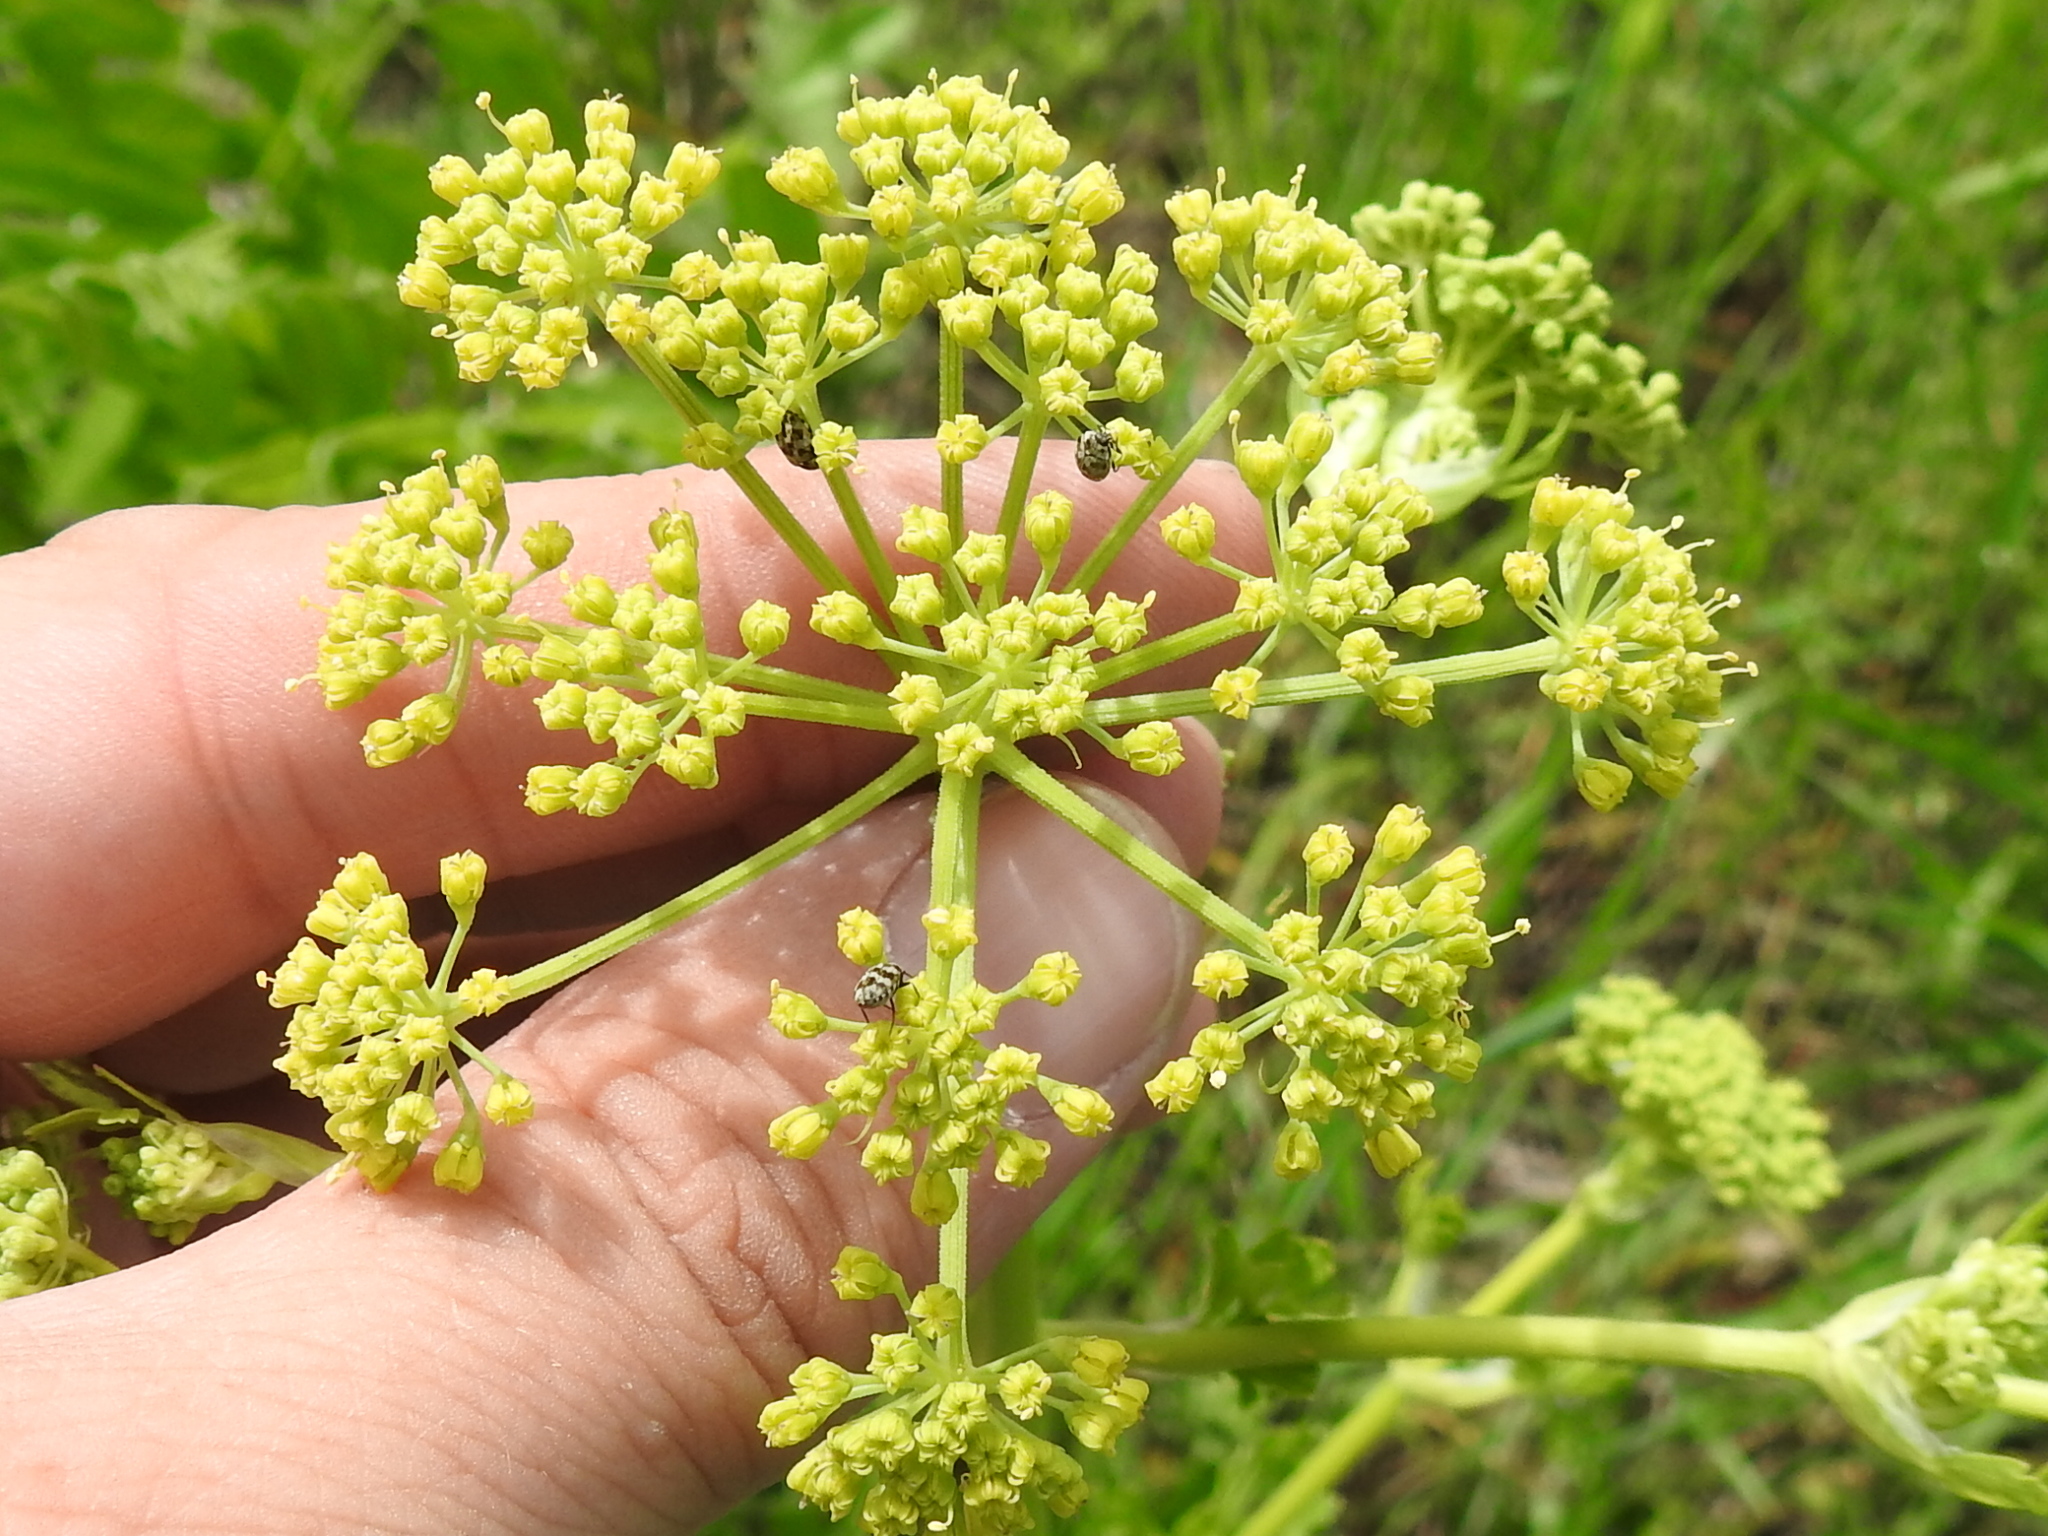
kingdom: Plantae
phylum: Tracheophyta
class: Magnoliopsida
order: Apiales
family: Apiaceae
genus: Polytaenia
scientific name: Polytaenia texana
